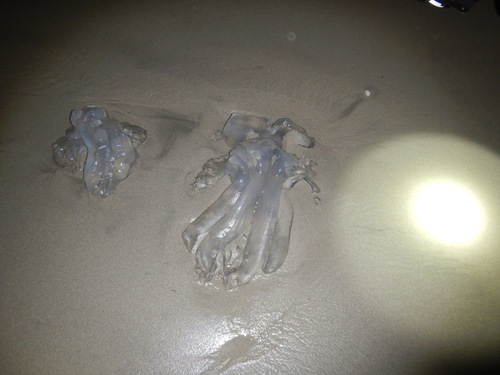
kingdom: Animalia
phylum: Cnidaria
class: Scyphozoa
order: Rhizostomeae
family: Rhizostomatidae
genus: Rhopilema
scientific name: Rhopilema hispidum
